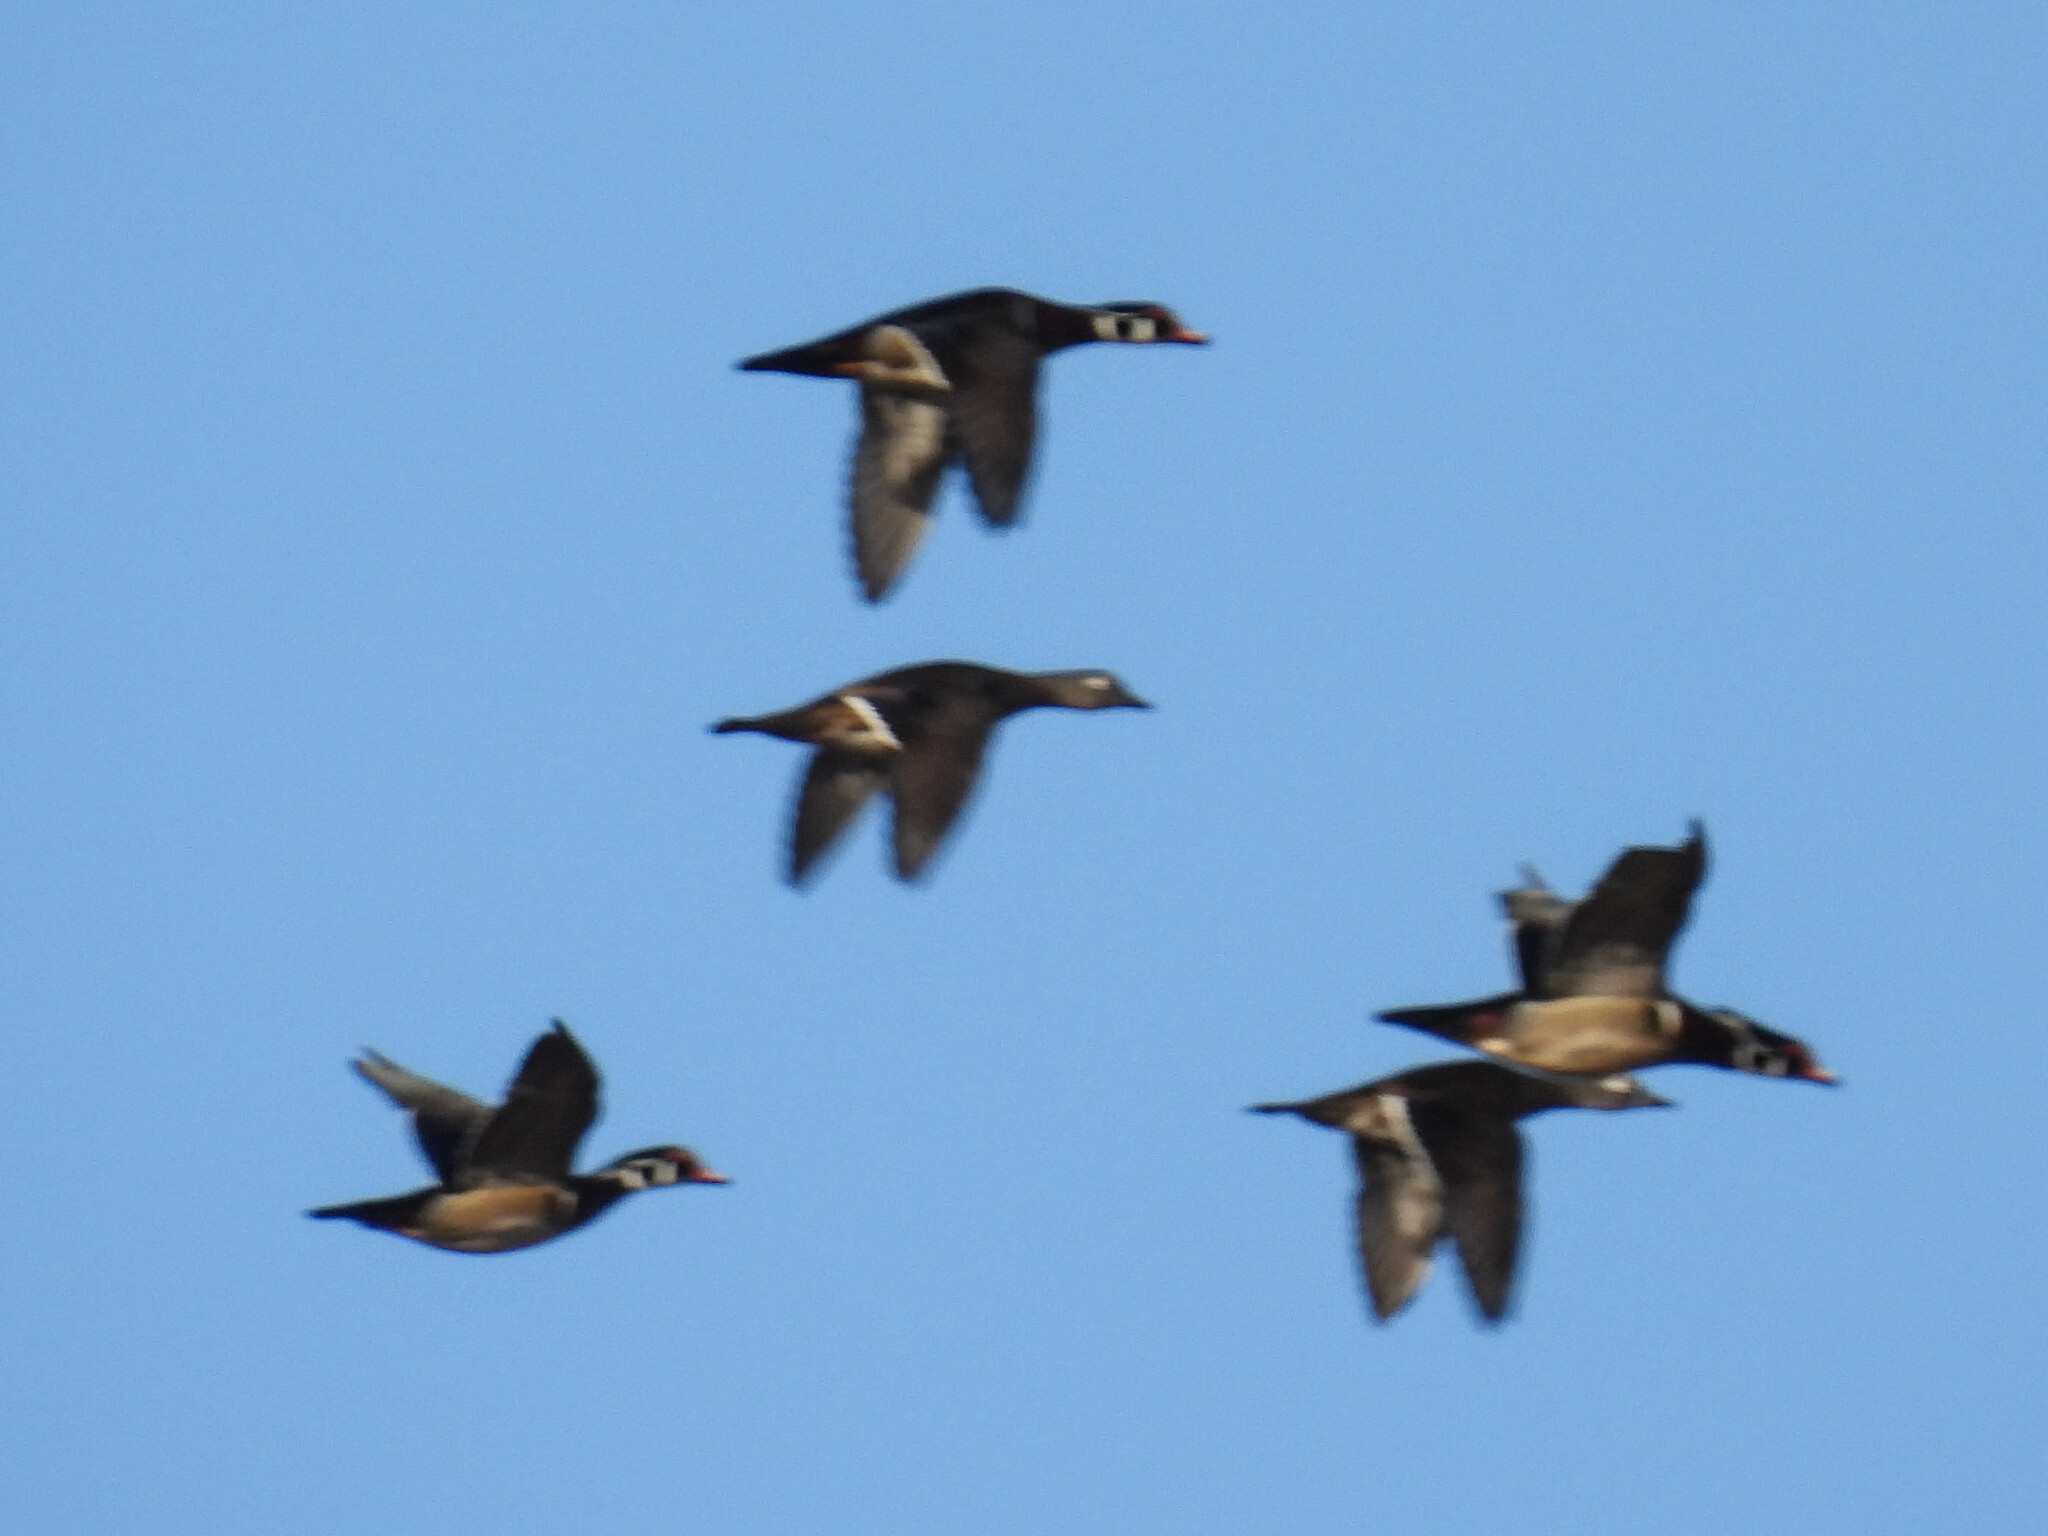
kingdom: Animalia
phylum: Chordata
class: Aves
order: Anseriformes
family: Anatidae
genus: Aix
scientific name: Aix sponsa
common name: Wood duck
